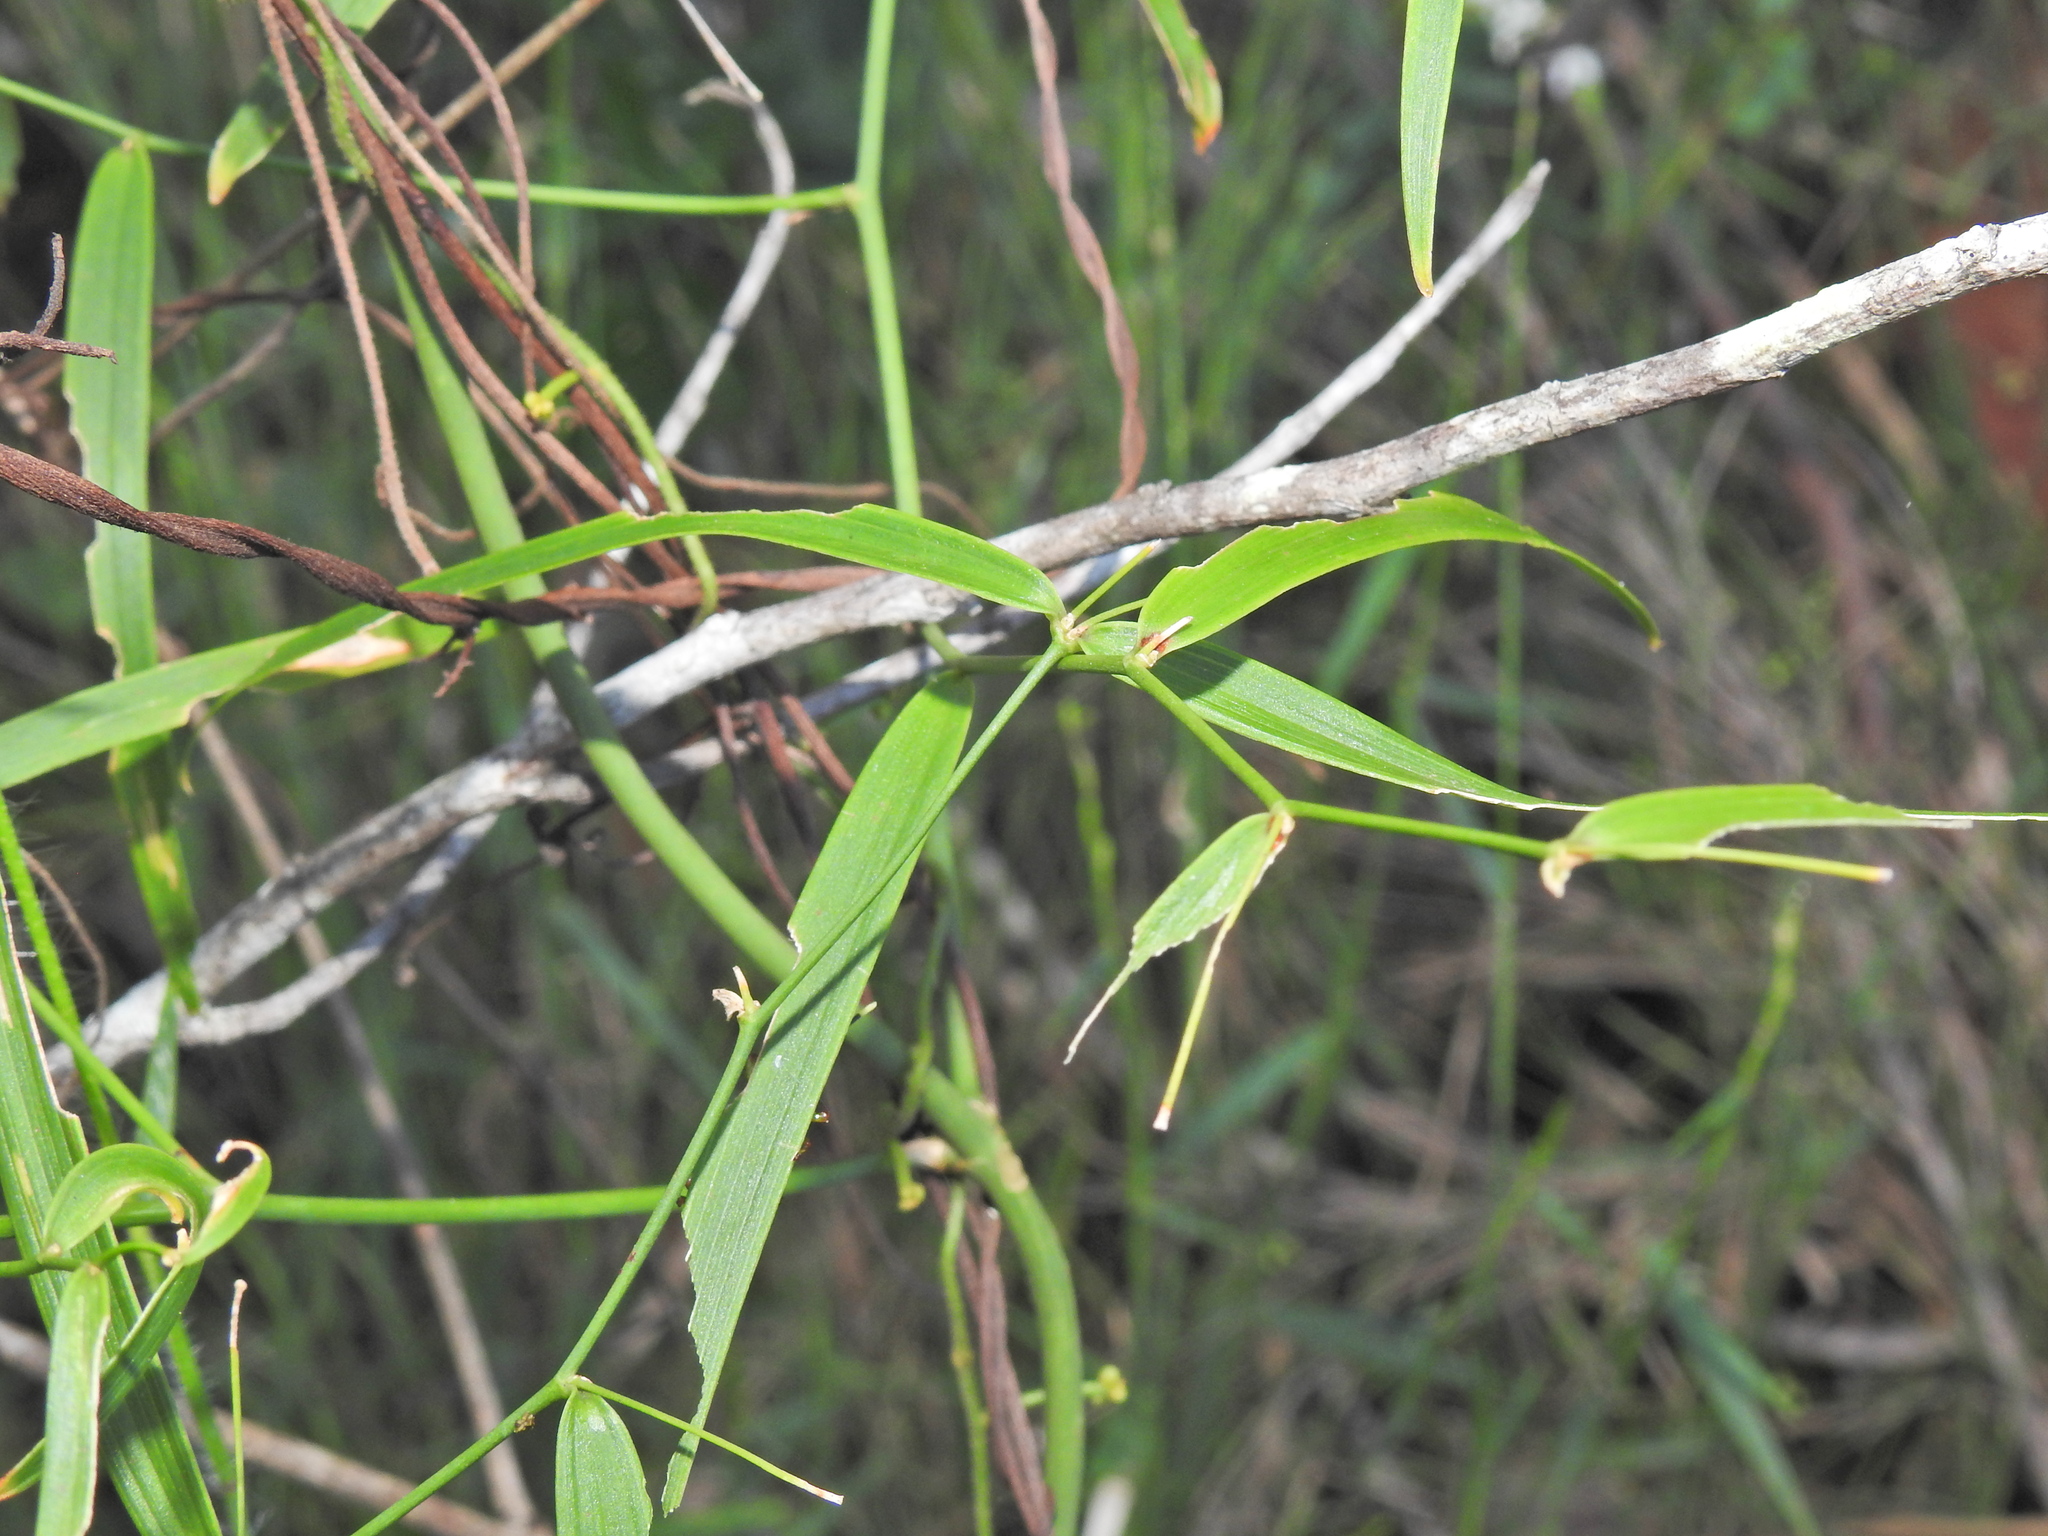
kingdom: Plantae
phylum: Tracheophyta
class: Liliopsida
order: Asparagales
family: Asparagaceae
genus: Eustrephus
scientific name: Eustrephus latifolius
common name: Orangevine
